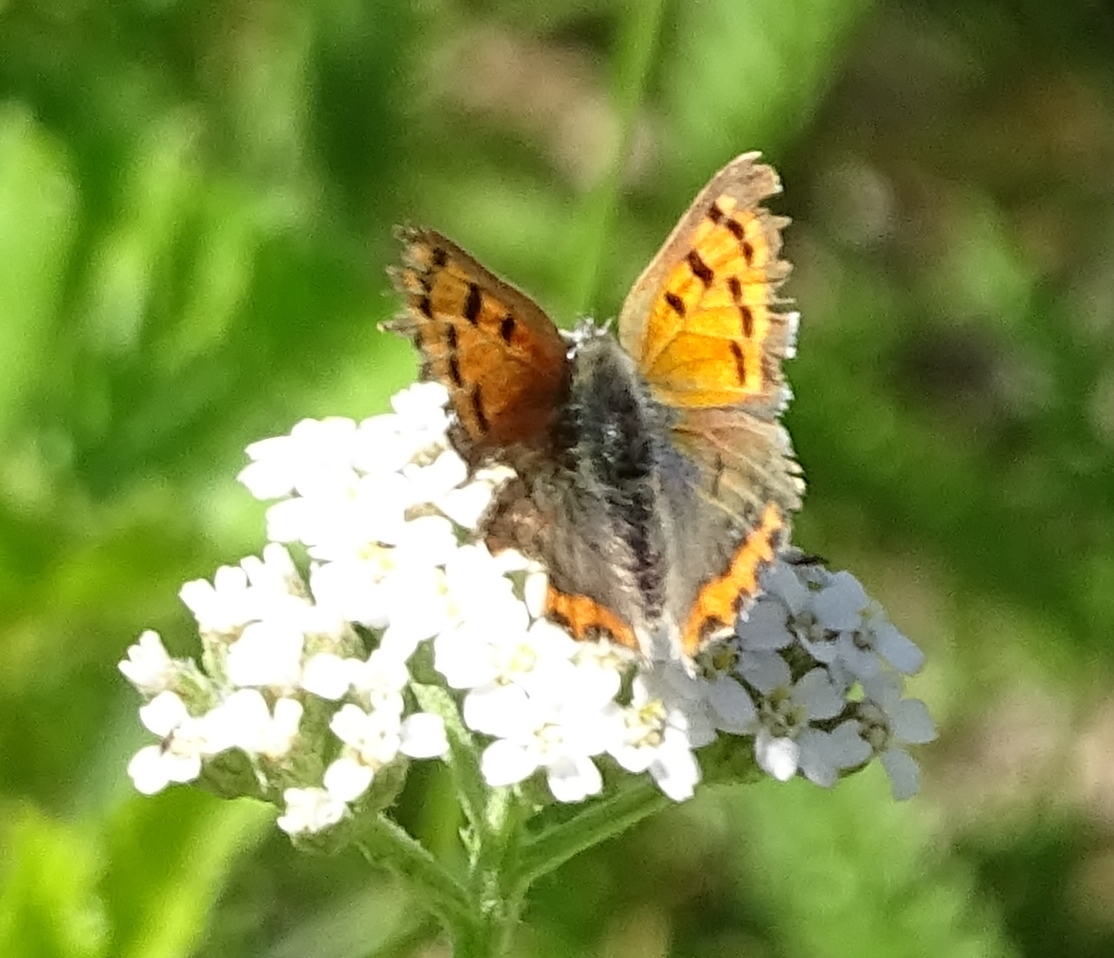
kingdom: Animalia
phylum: Arthropoda
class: Insecta
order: Lepidoptera
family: Lycaenidae
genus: Lycaena
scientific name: Lycaena hypophlaeas
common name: American copper
